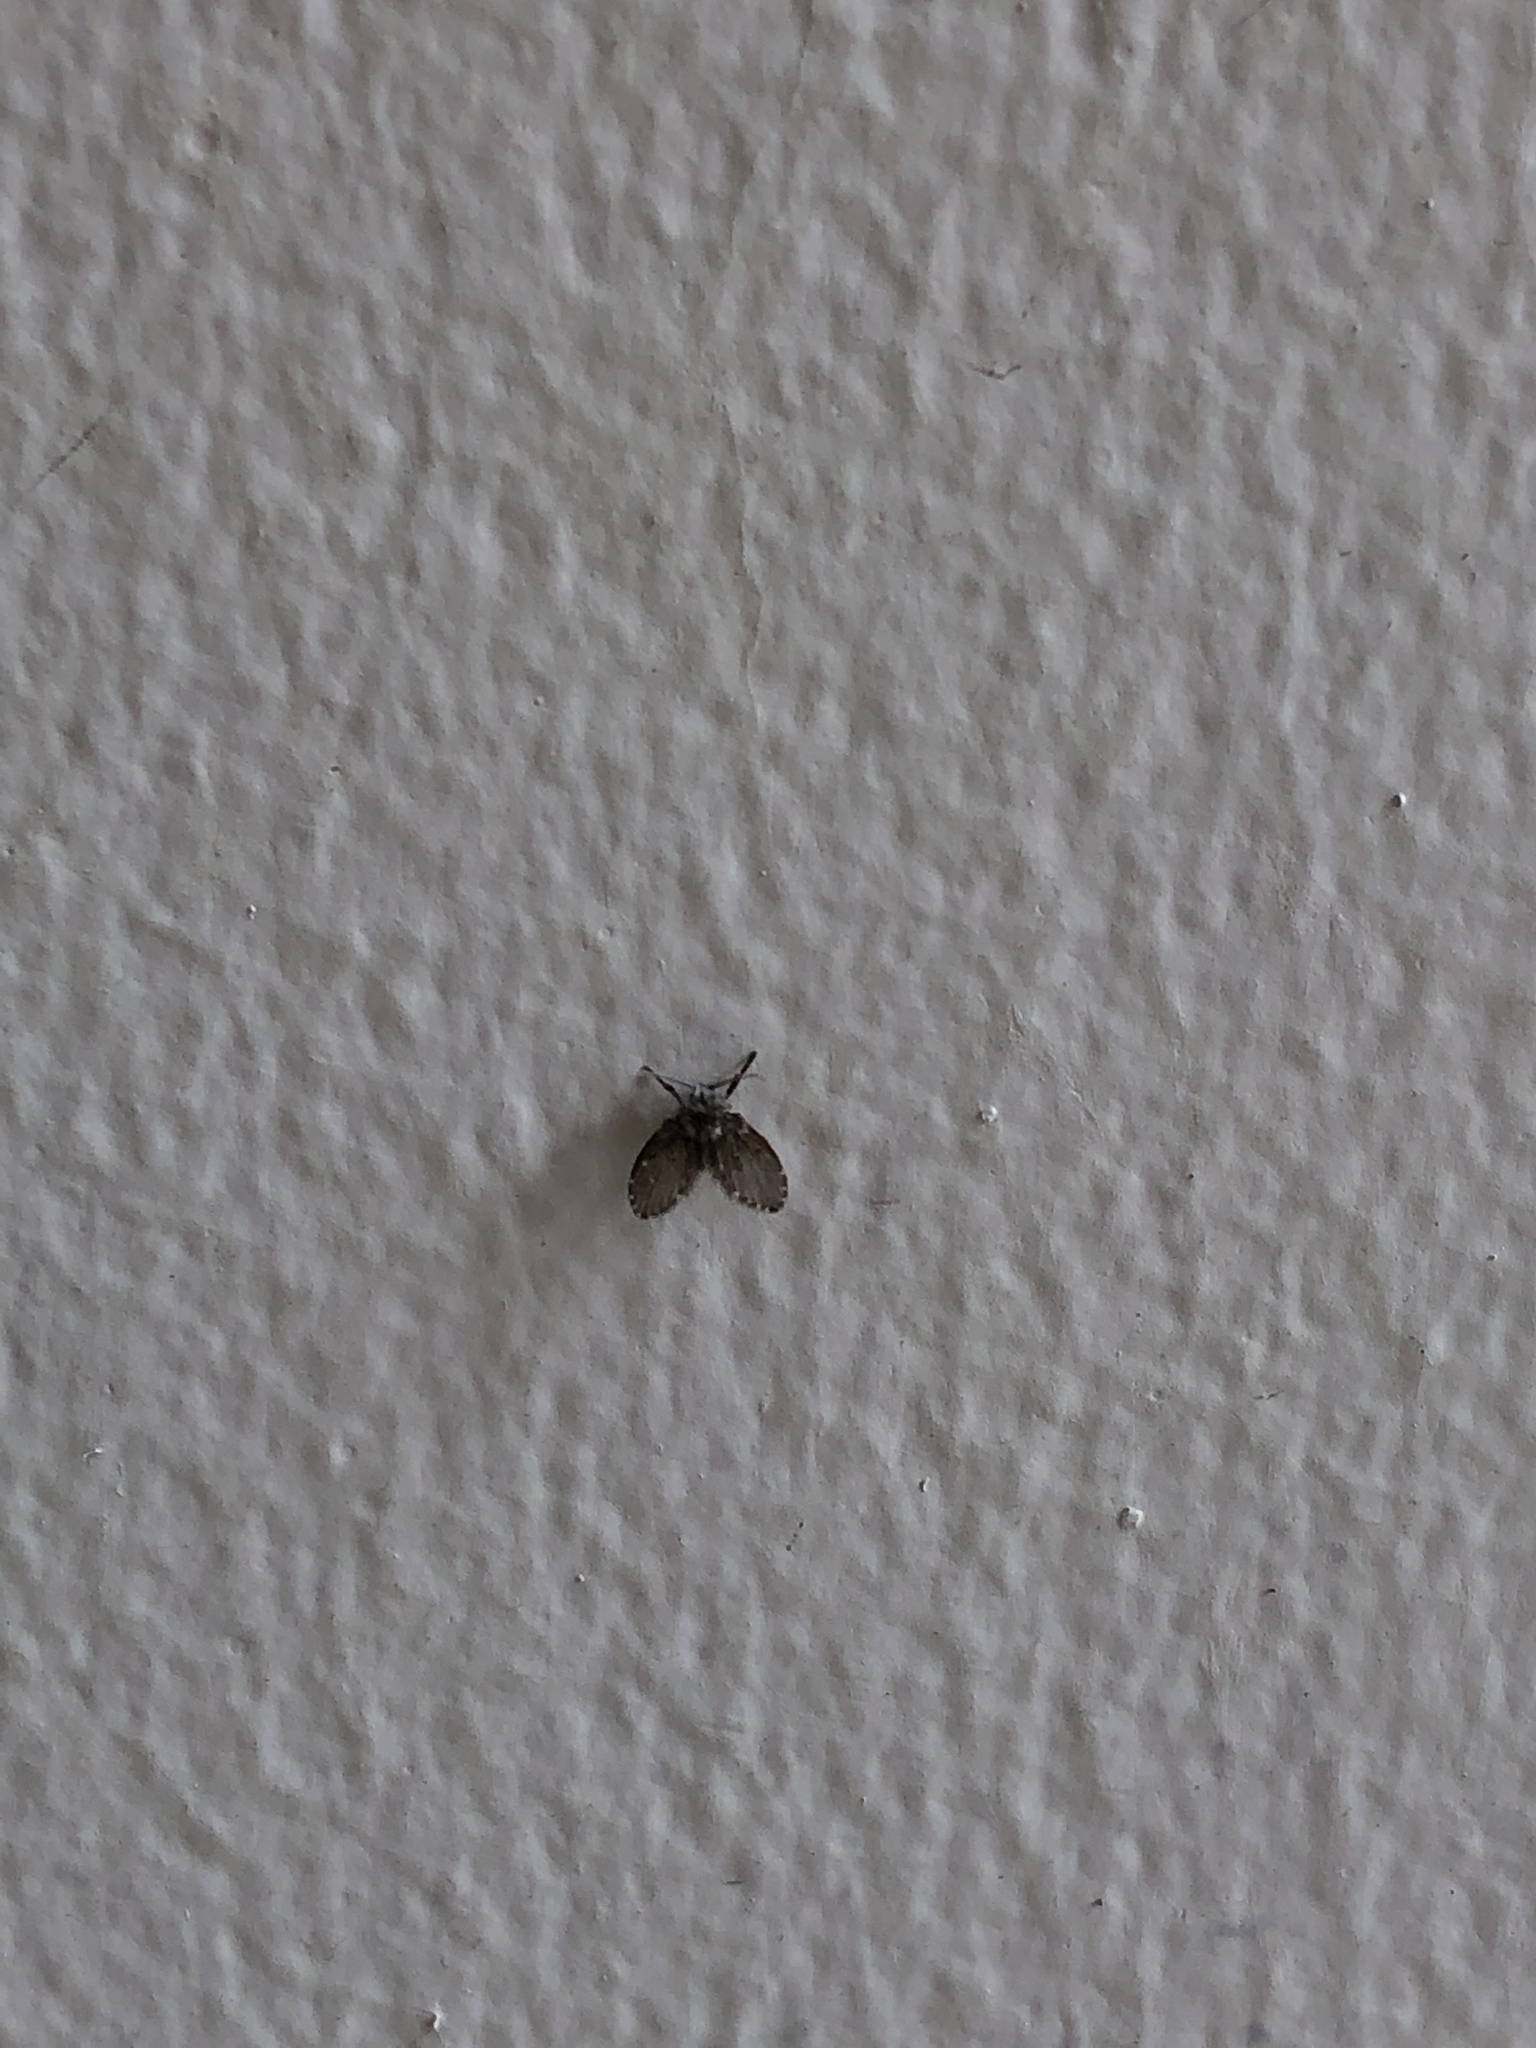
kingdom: Animalia
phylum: Arthropoda
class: Insecta
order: Diptera
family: Psychodidae
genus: Clogmia
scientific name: Clogmia albipunctatus
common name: White-spotted moth fly
